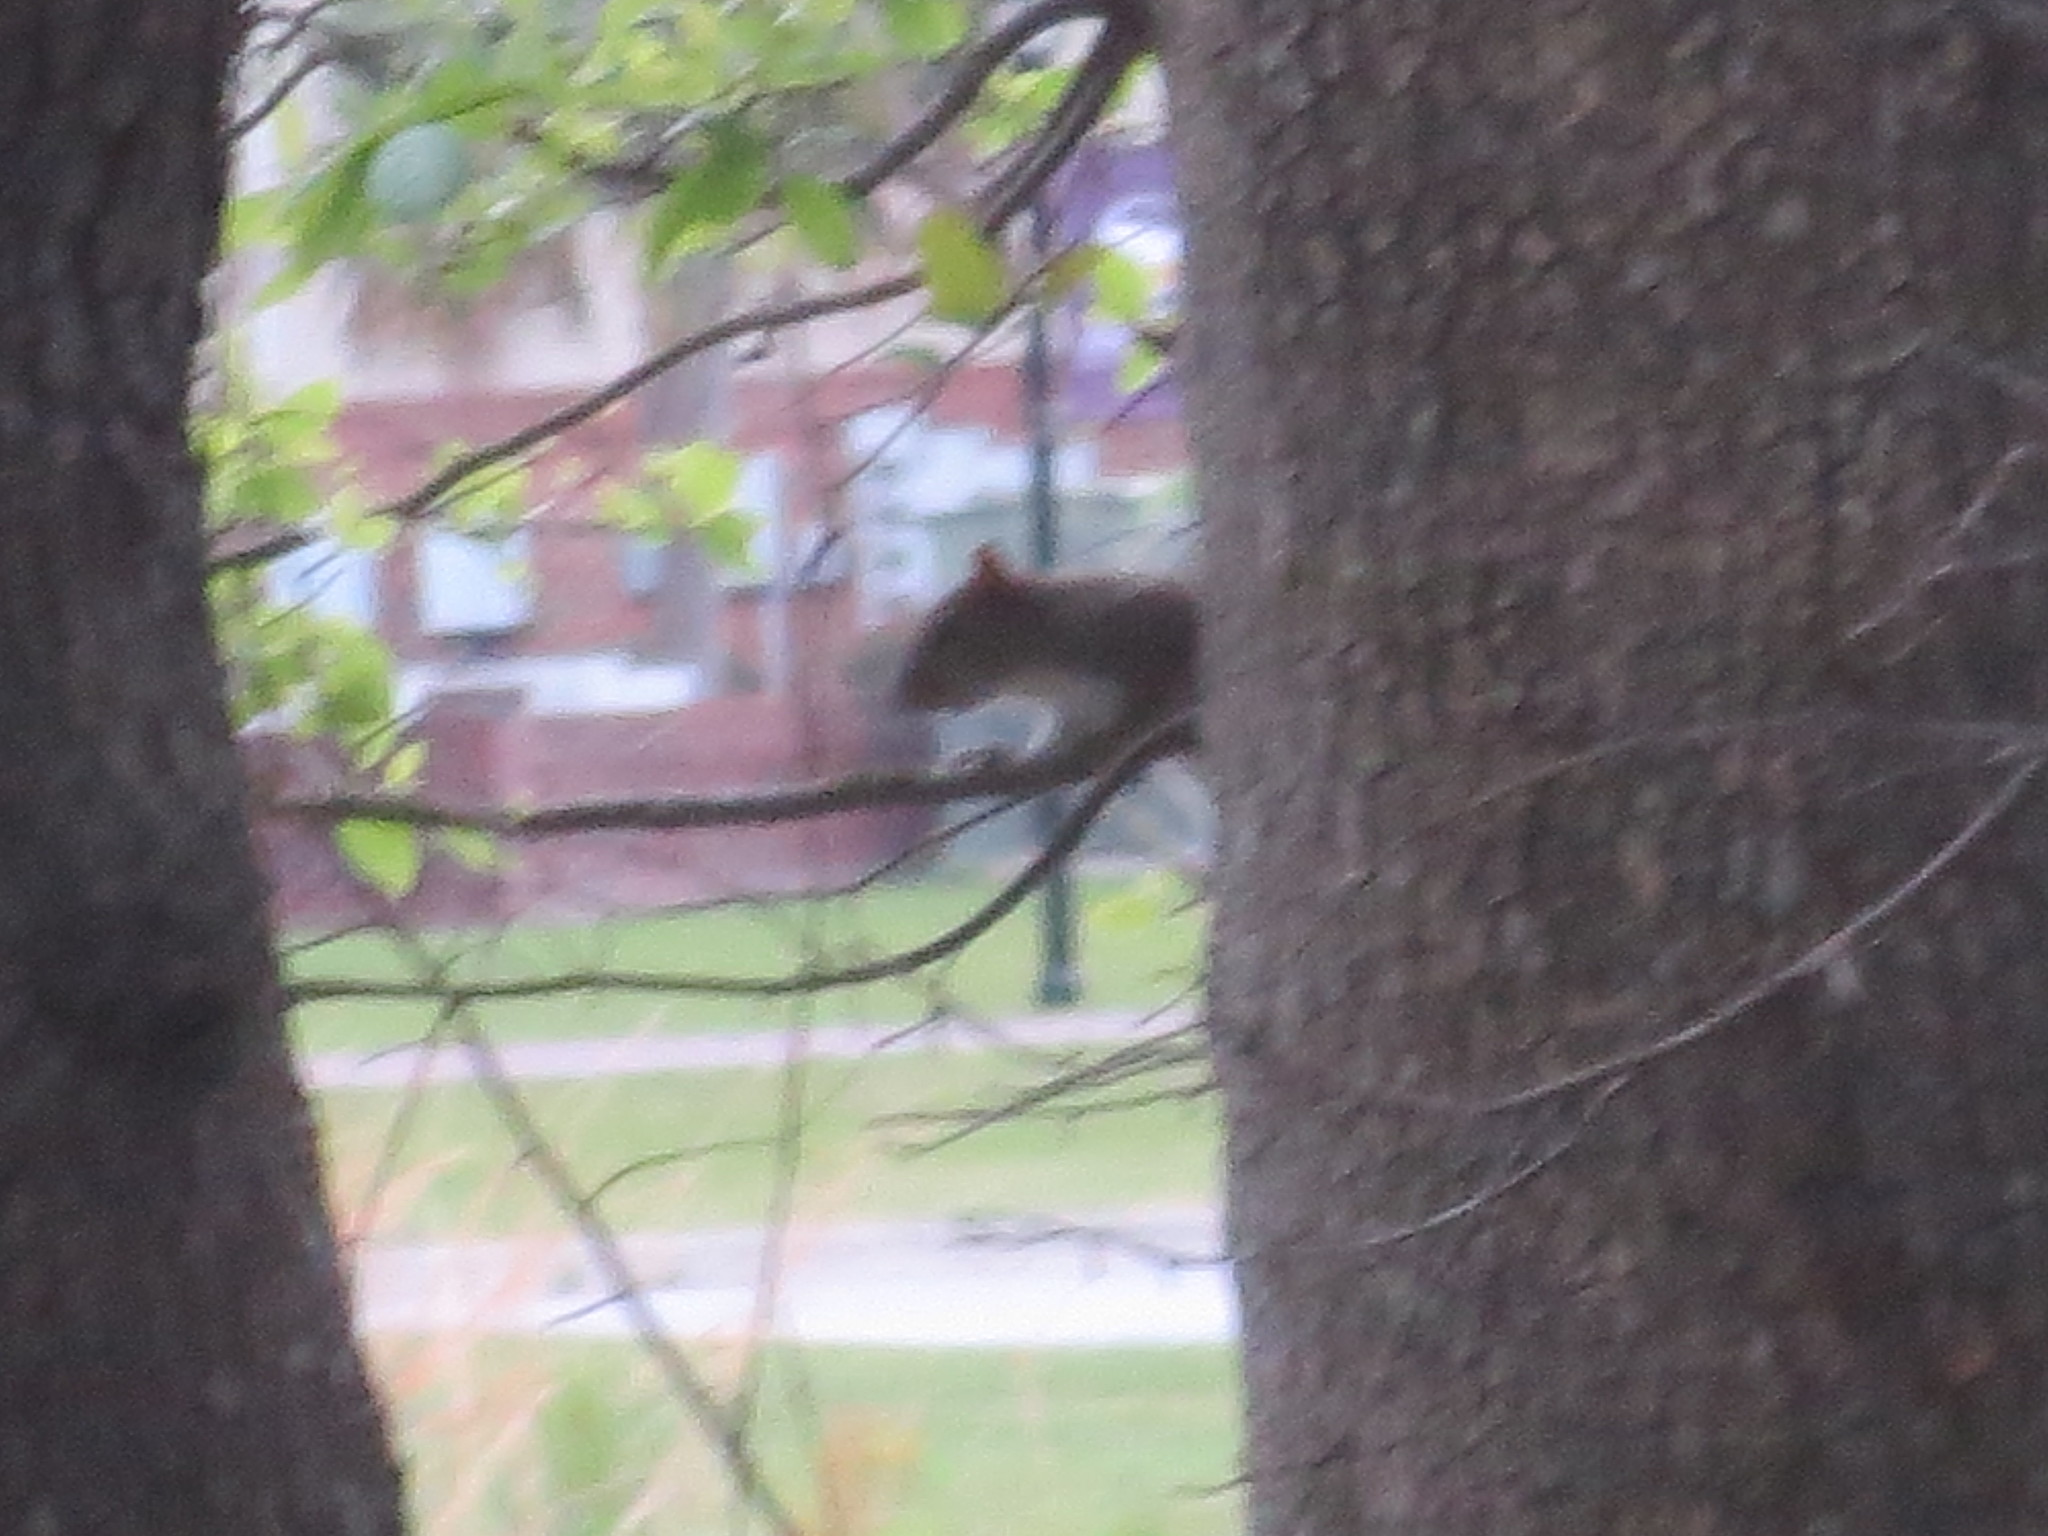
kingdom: Animalia
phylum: Chordata
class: Mammalia
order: Rodentia
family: Sciuridae
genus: Sciurus
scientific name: Sciurus carolinensis
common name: Eastern gray squirrel
